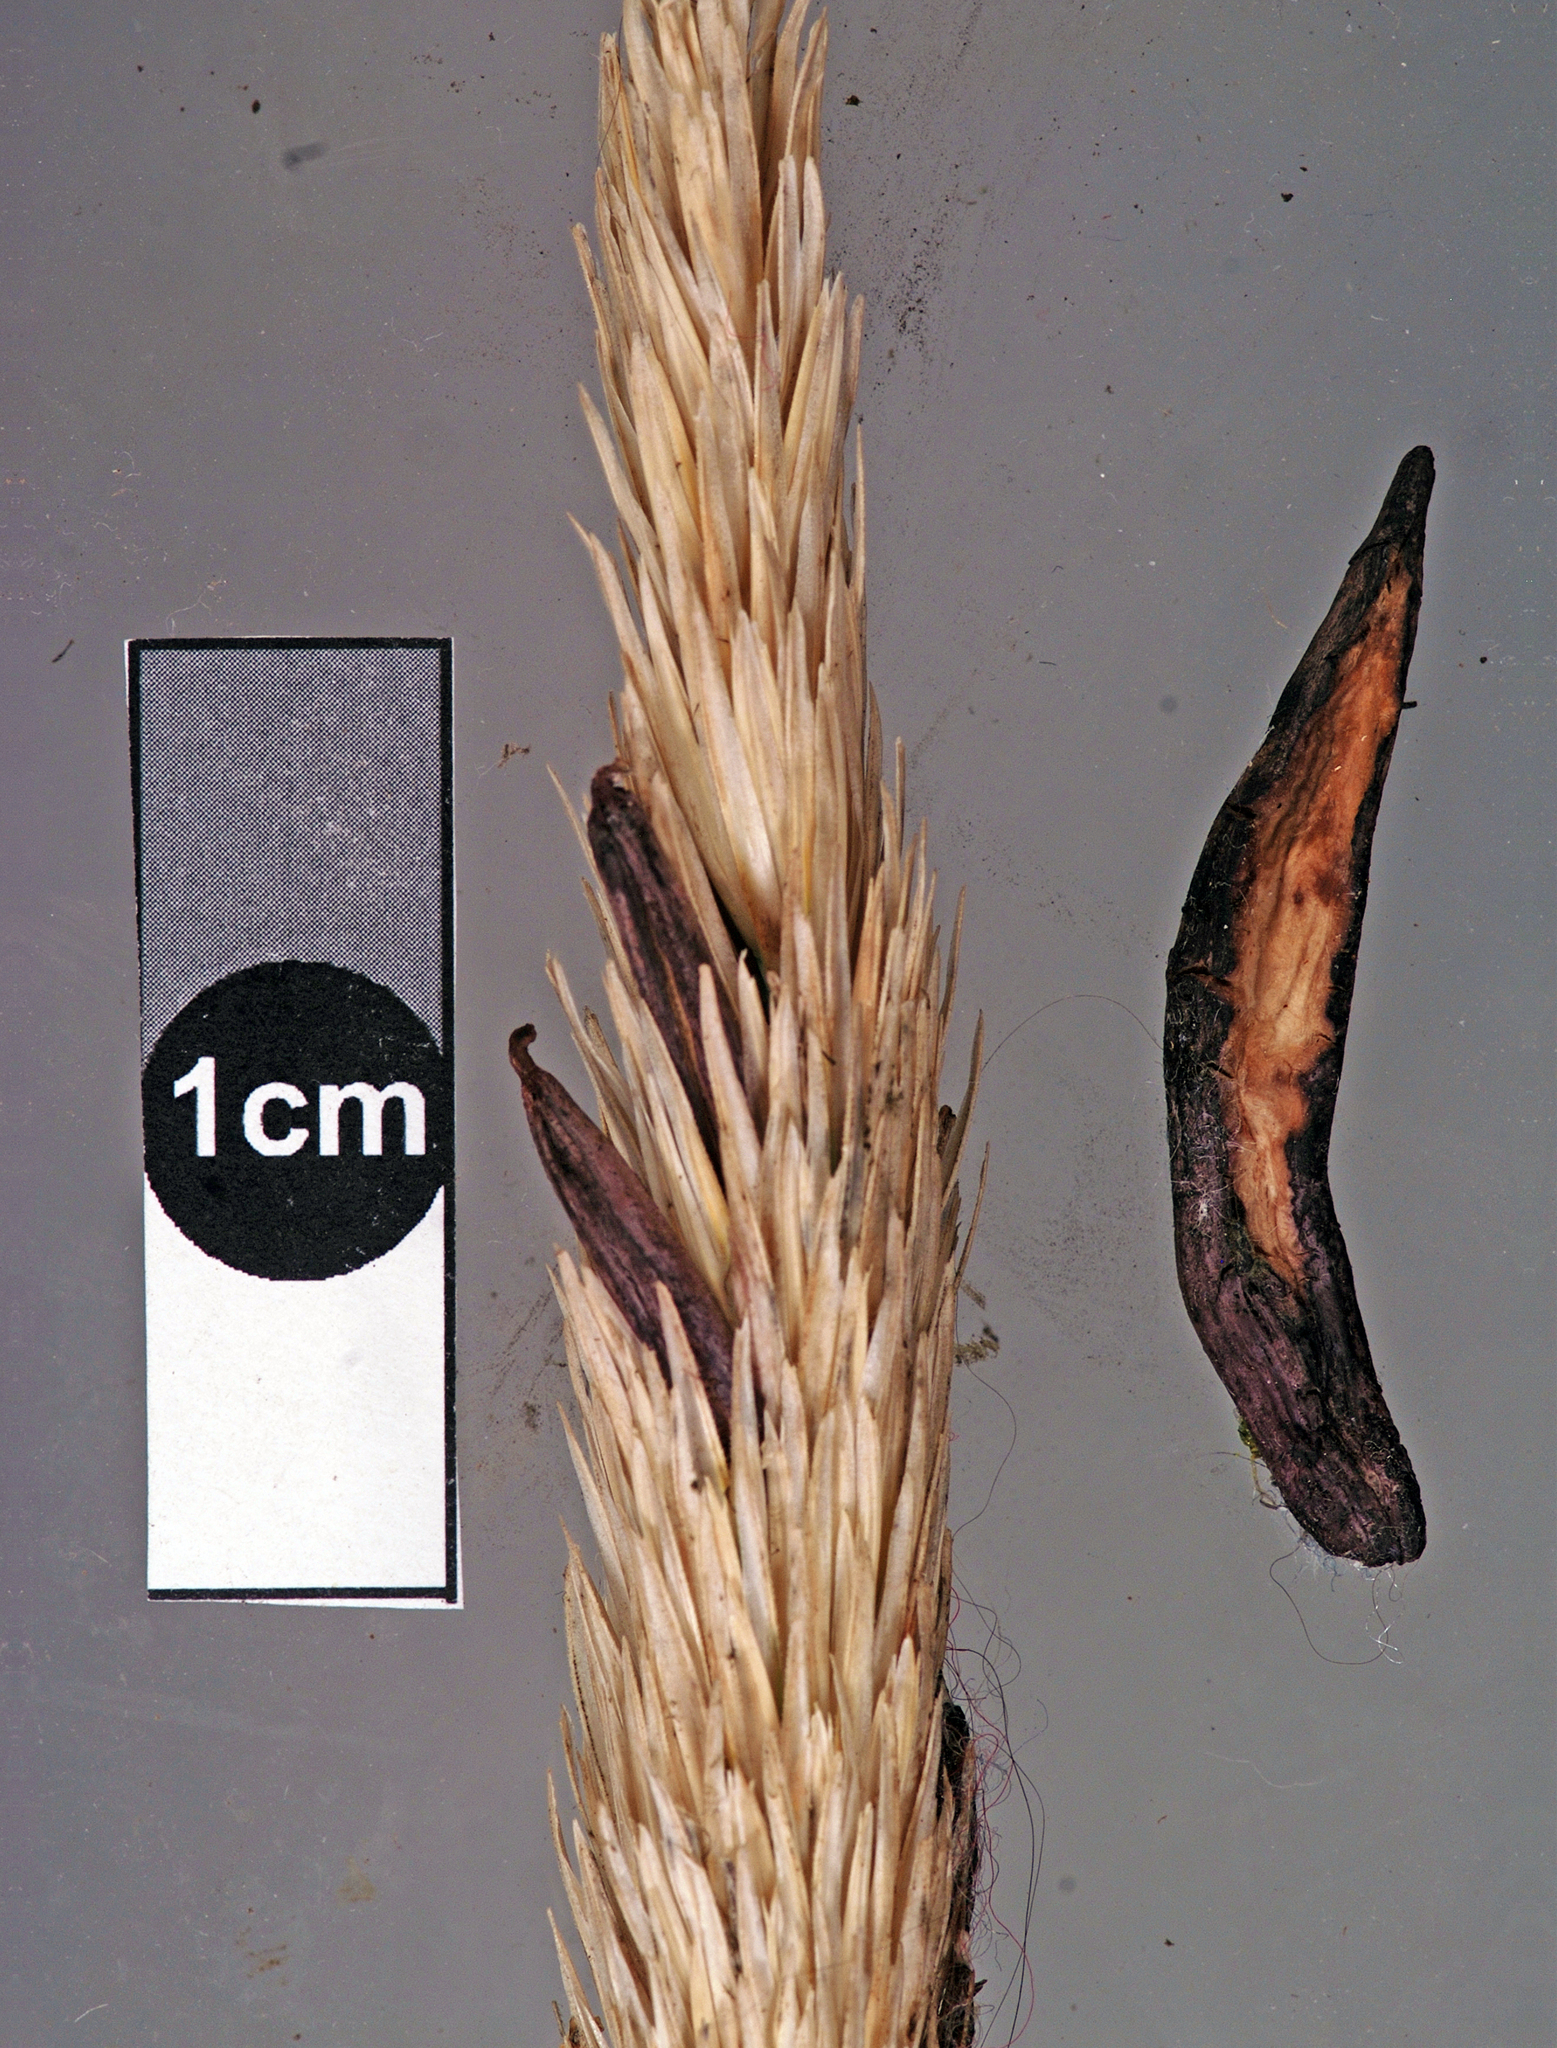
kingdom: Fungi
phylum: Ascomycota
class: Sordariomycetes
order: Hypocreales
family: Clavicipitaceae
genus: Claviceps
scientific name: Claviceps purpurea
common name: Rye ergot
